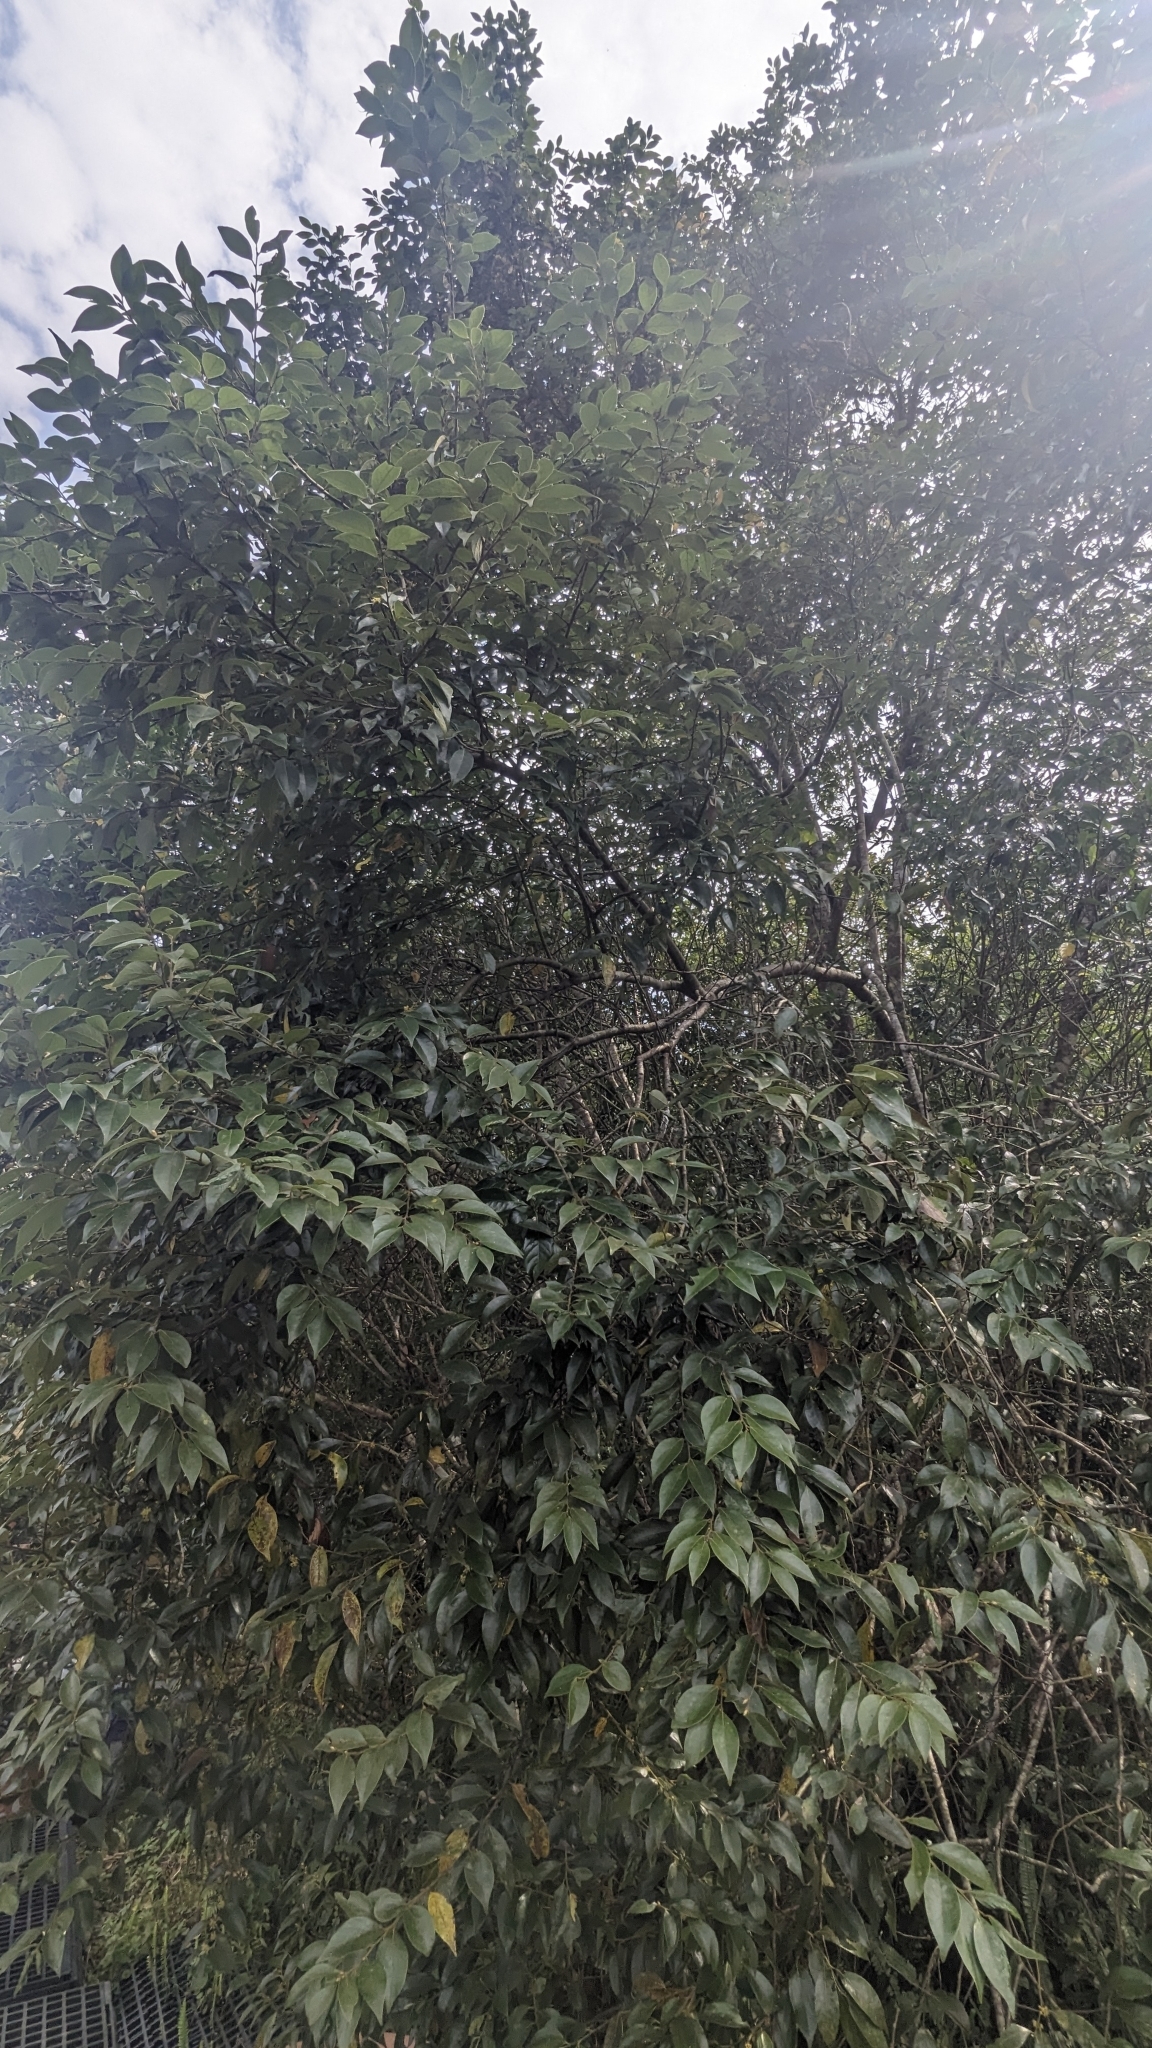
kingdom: Plantae
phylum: Tracheophyta
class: Magnoliopsida
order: Laurales
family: Lauraceae
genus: Lindera
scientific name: Lindera communis
